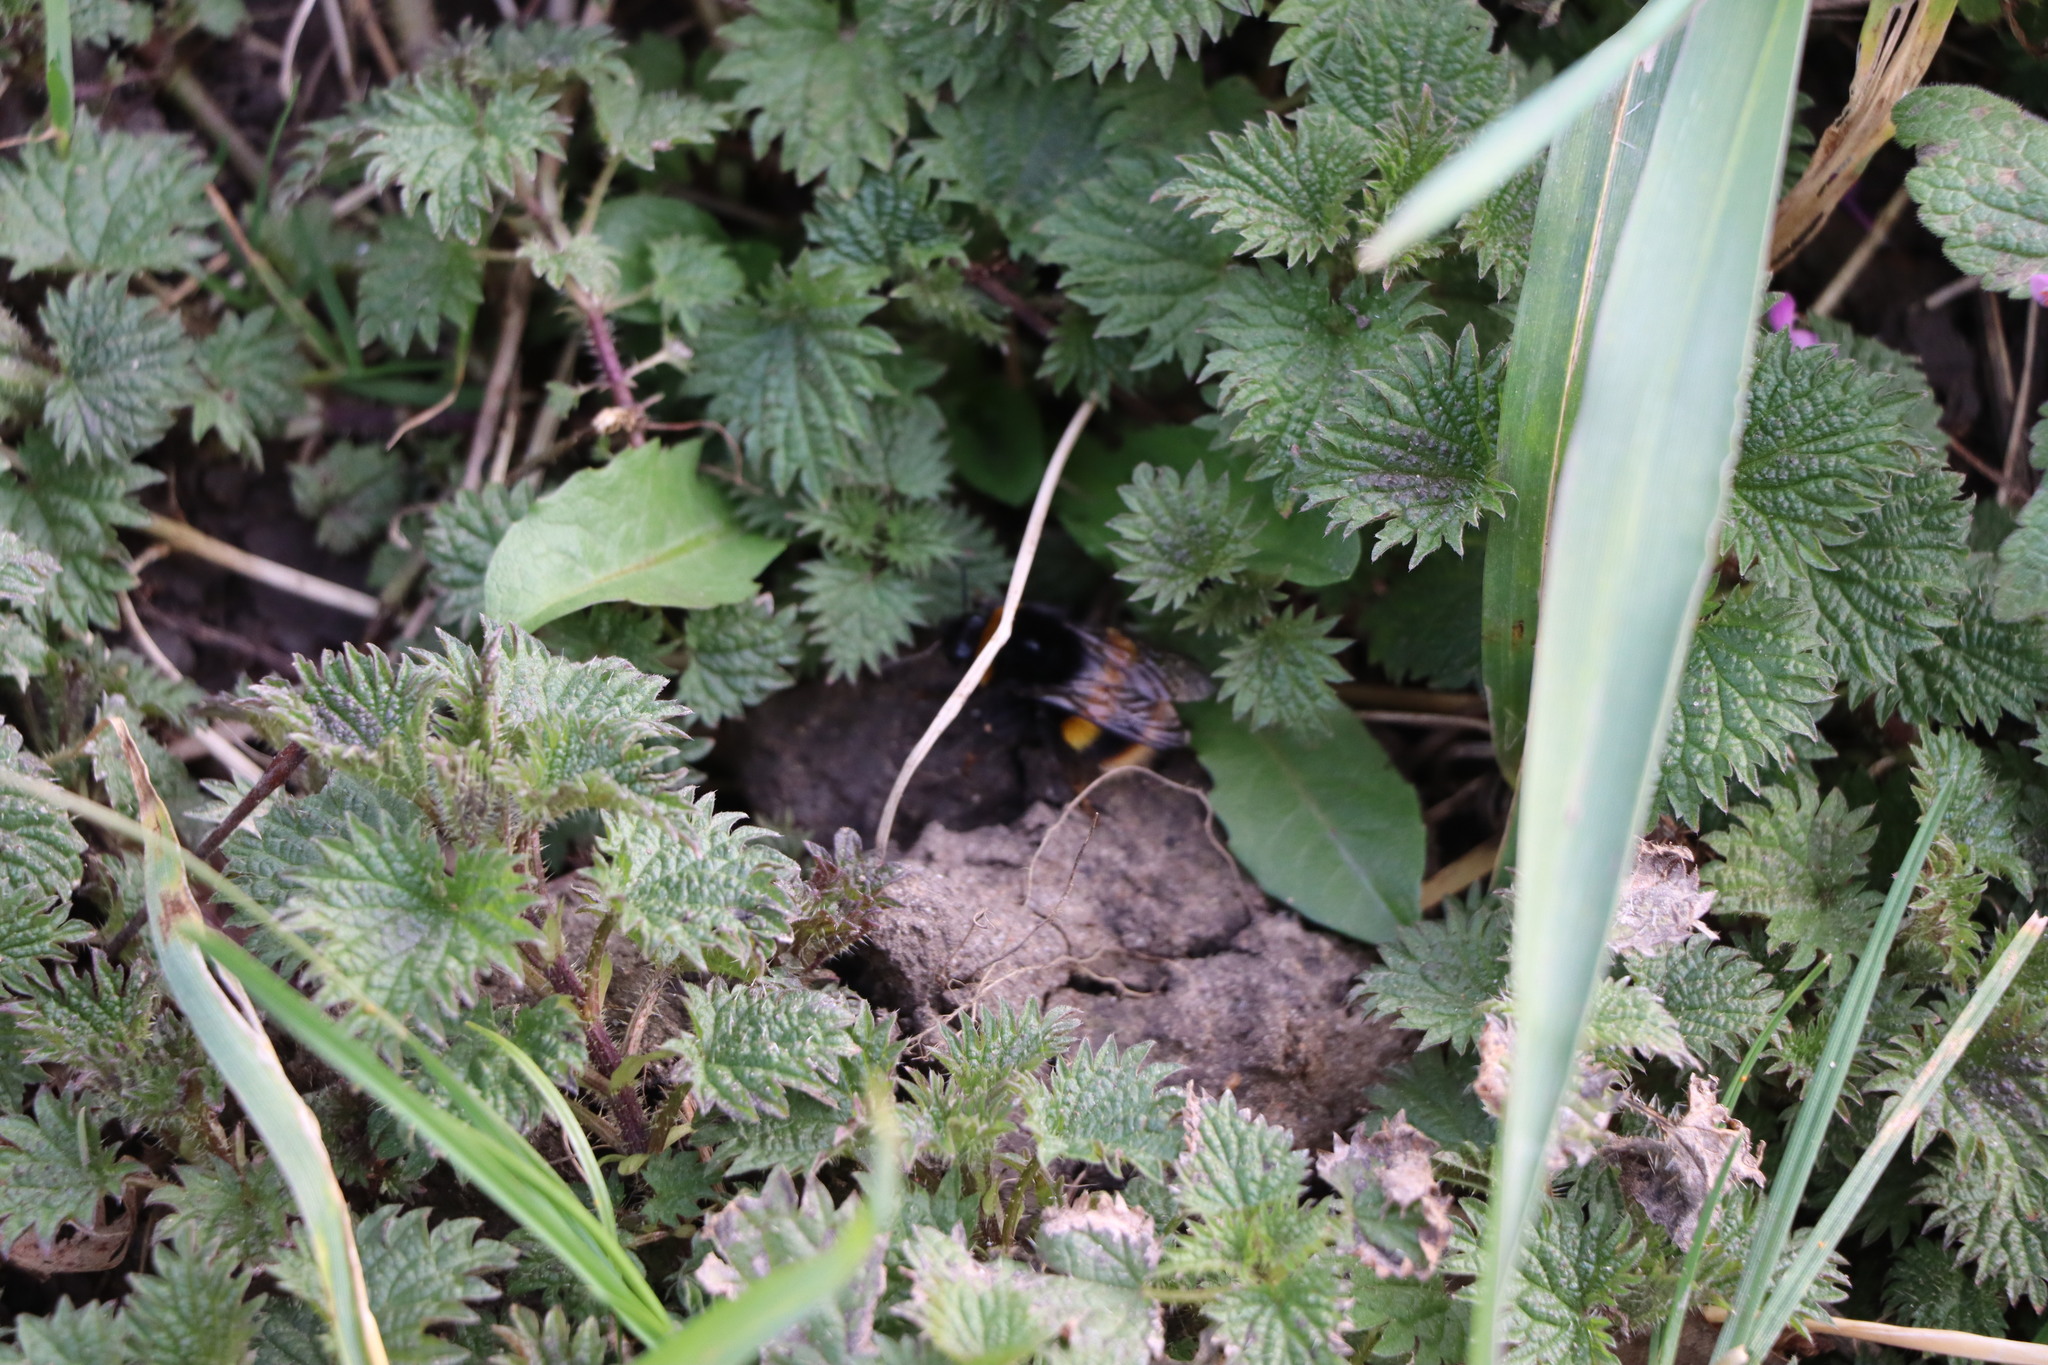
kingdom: Animalia
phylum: Arthropoda
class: Insecta
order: Hymenoptera
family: Apidae
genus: Bombus
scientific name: Bombus terrestris
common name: Buff-tailed bumblebee
